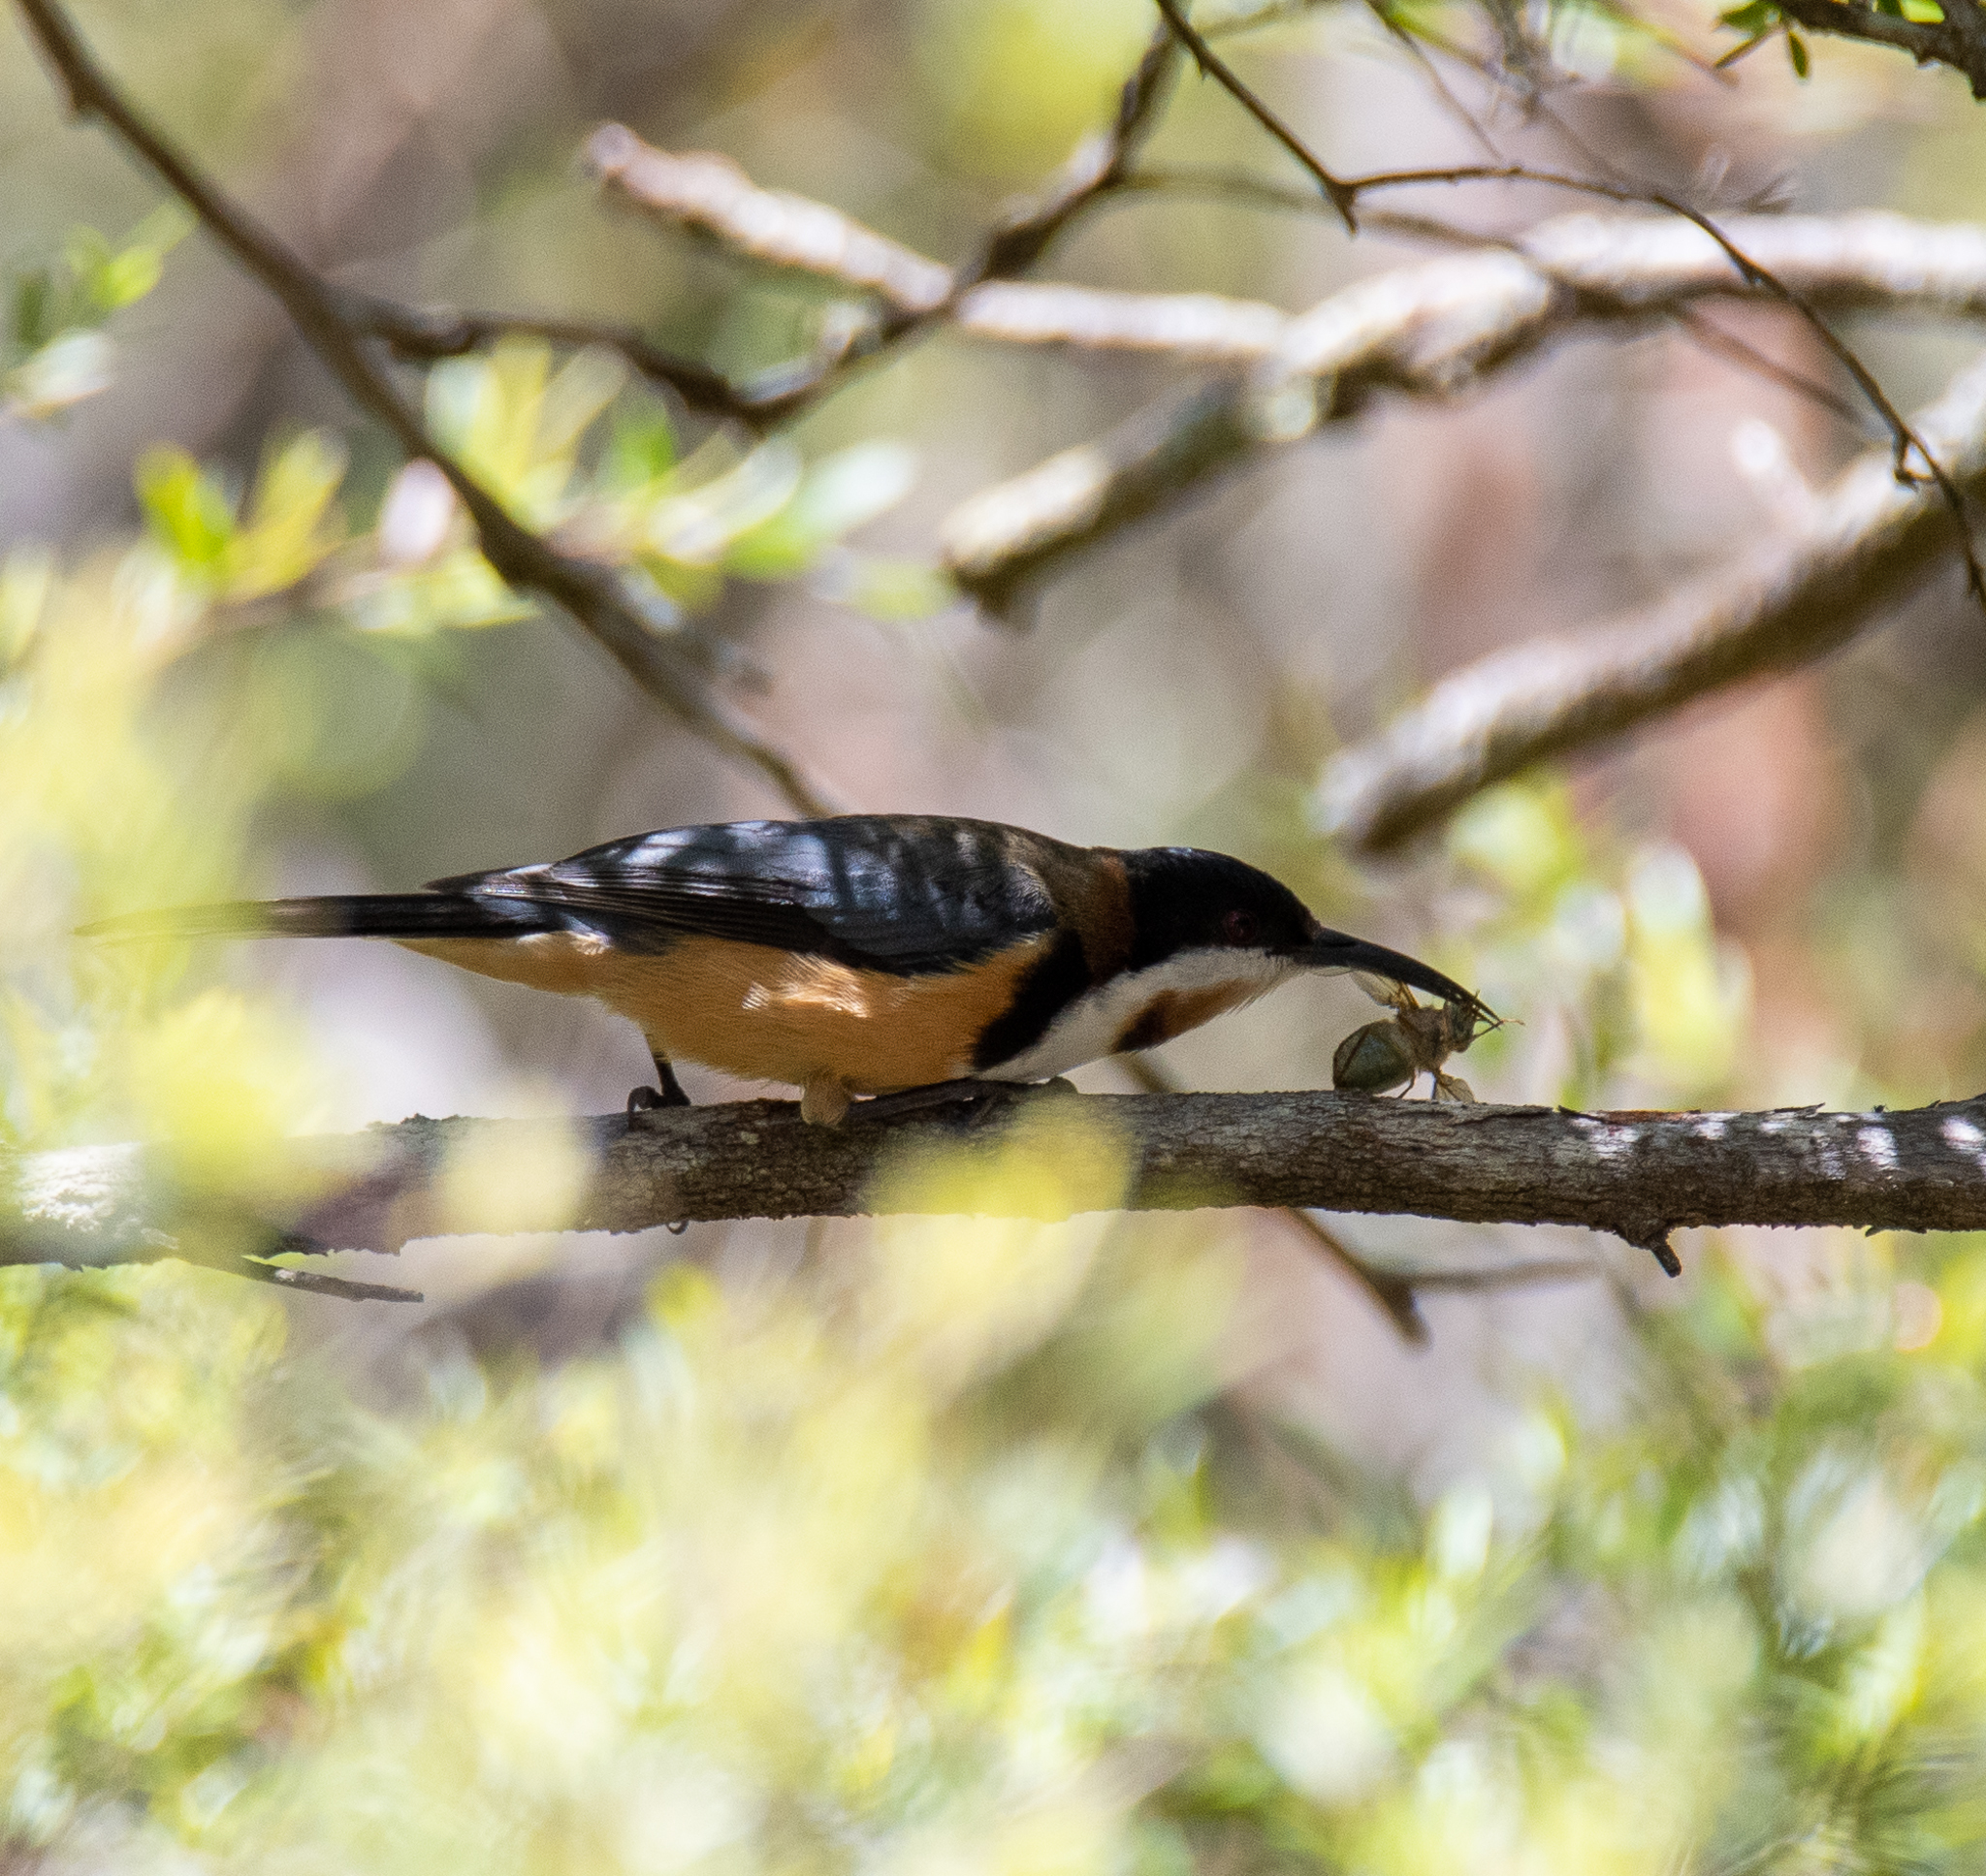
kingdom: Animalia
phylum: Chordata
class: Aves
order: Passeriformes
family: Meliphagidae
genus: Acanthorhynchus
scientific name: Acanthorhynchus tenuirostris
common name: Eastern spinebill
